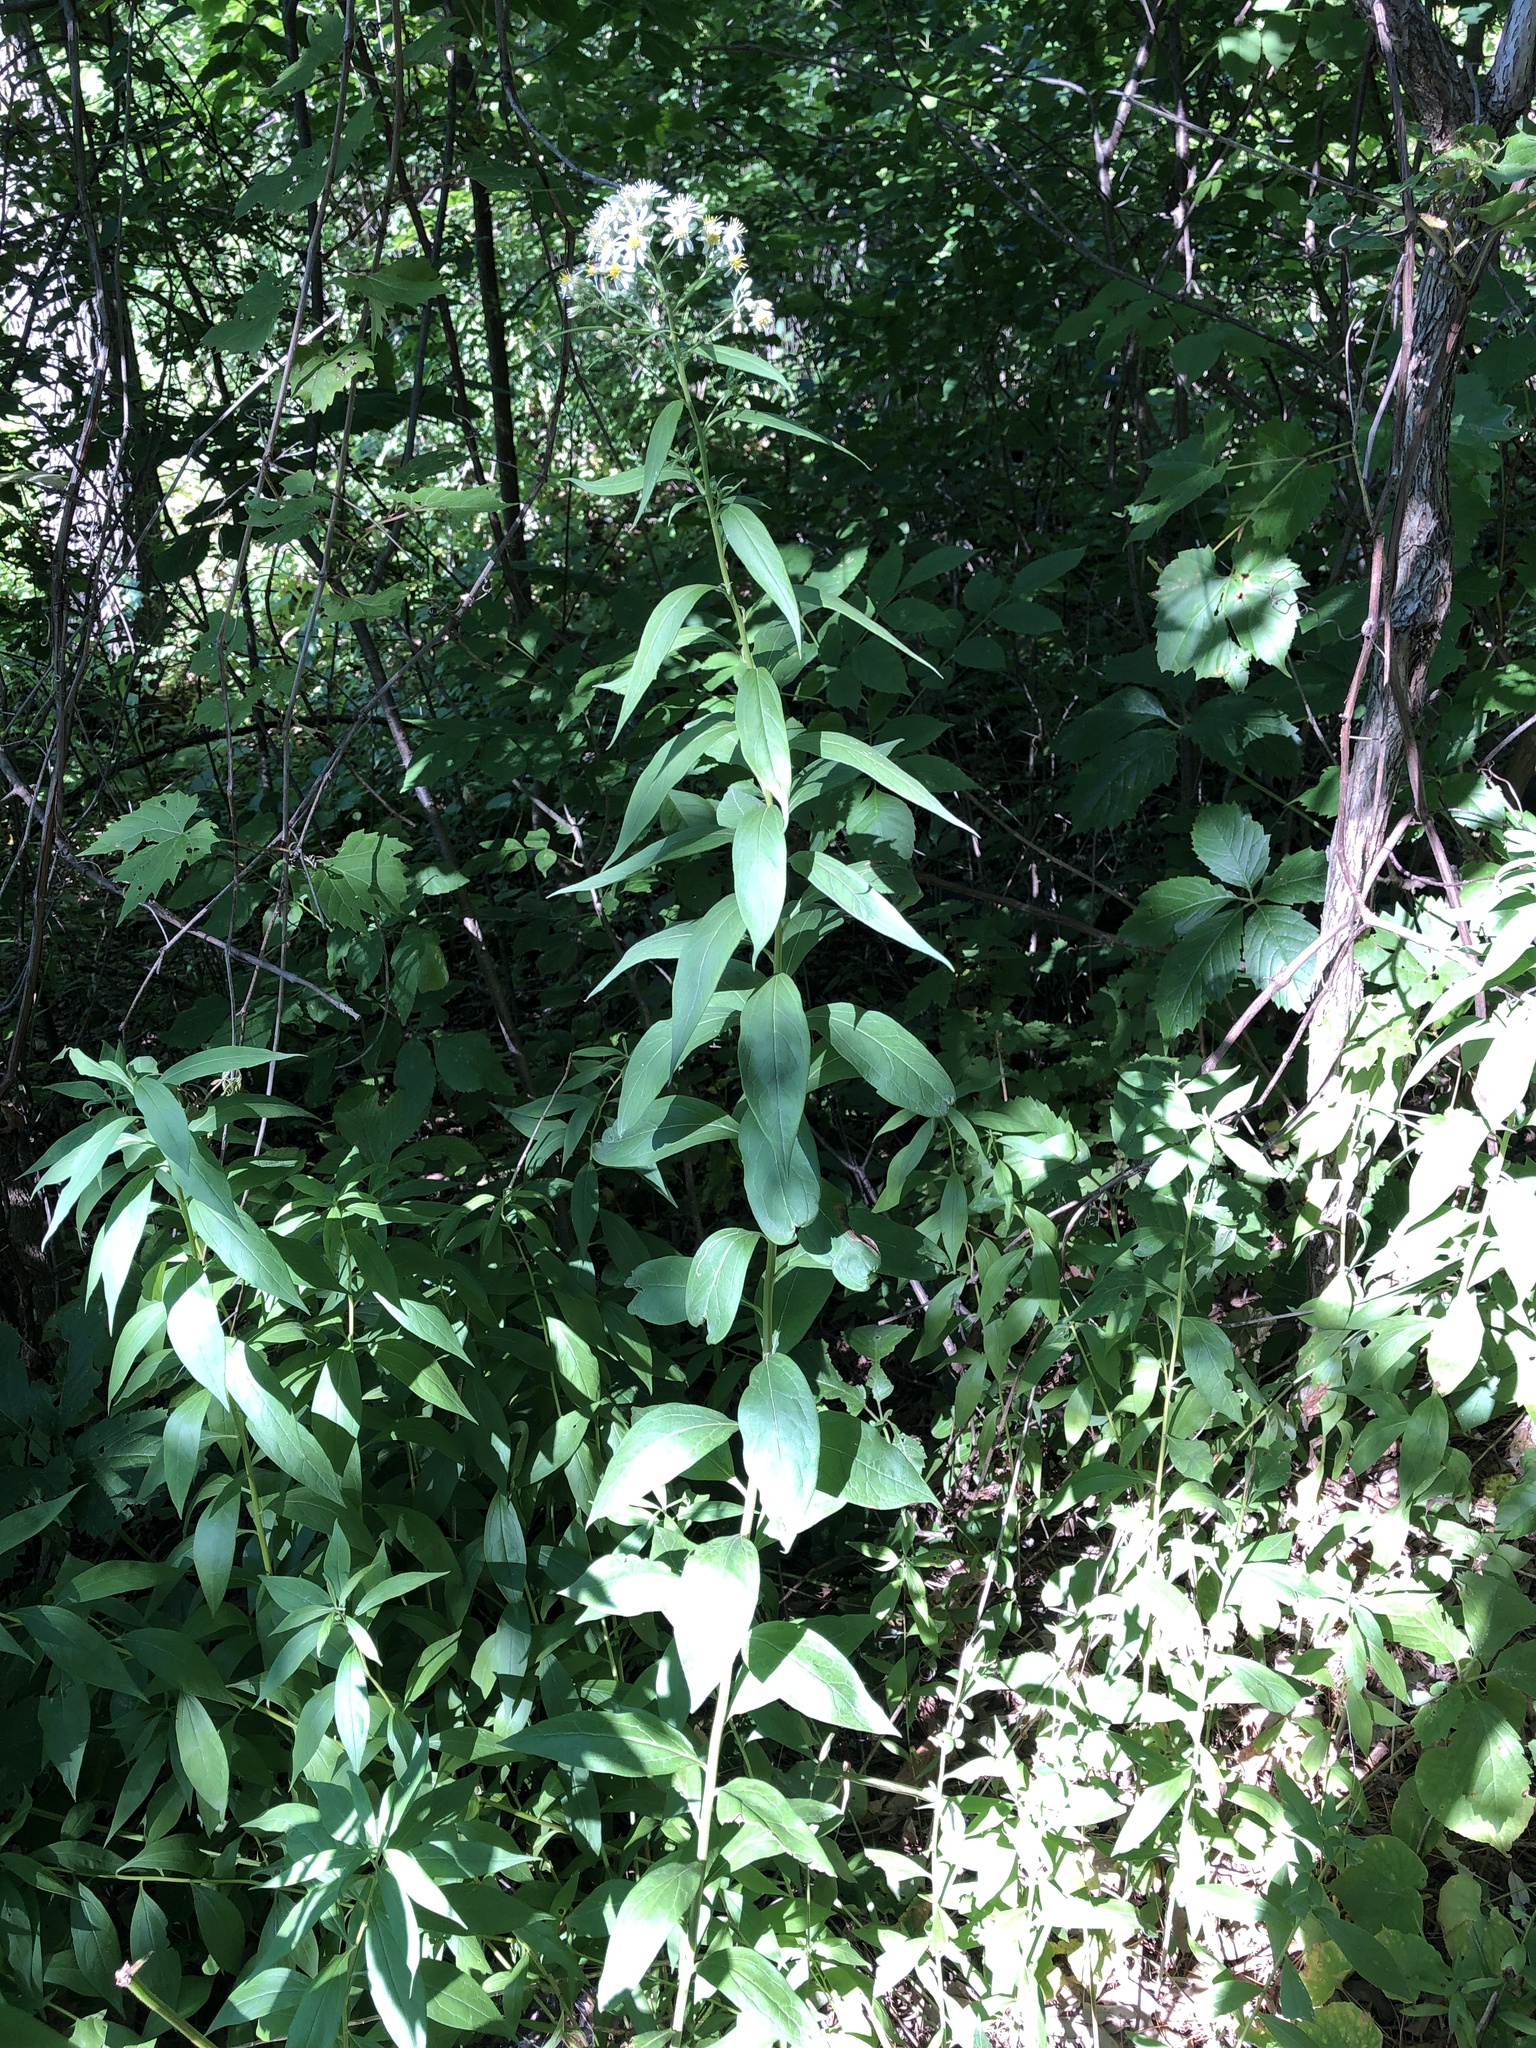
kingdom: Plantae
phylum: Tracheophyta
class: Magnoliopsida
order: Asterales
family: Asteraceae
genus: Doellingeria
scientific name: Doellingeria umbellata
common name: Flat-top white aster
